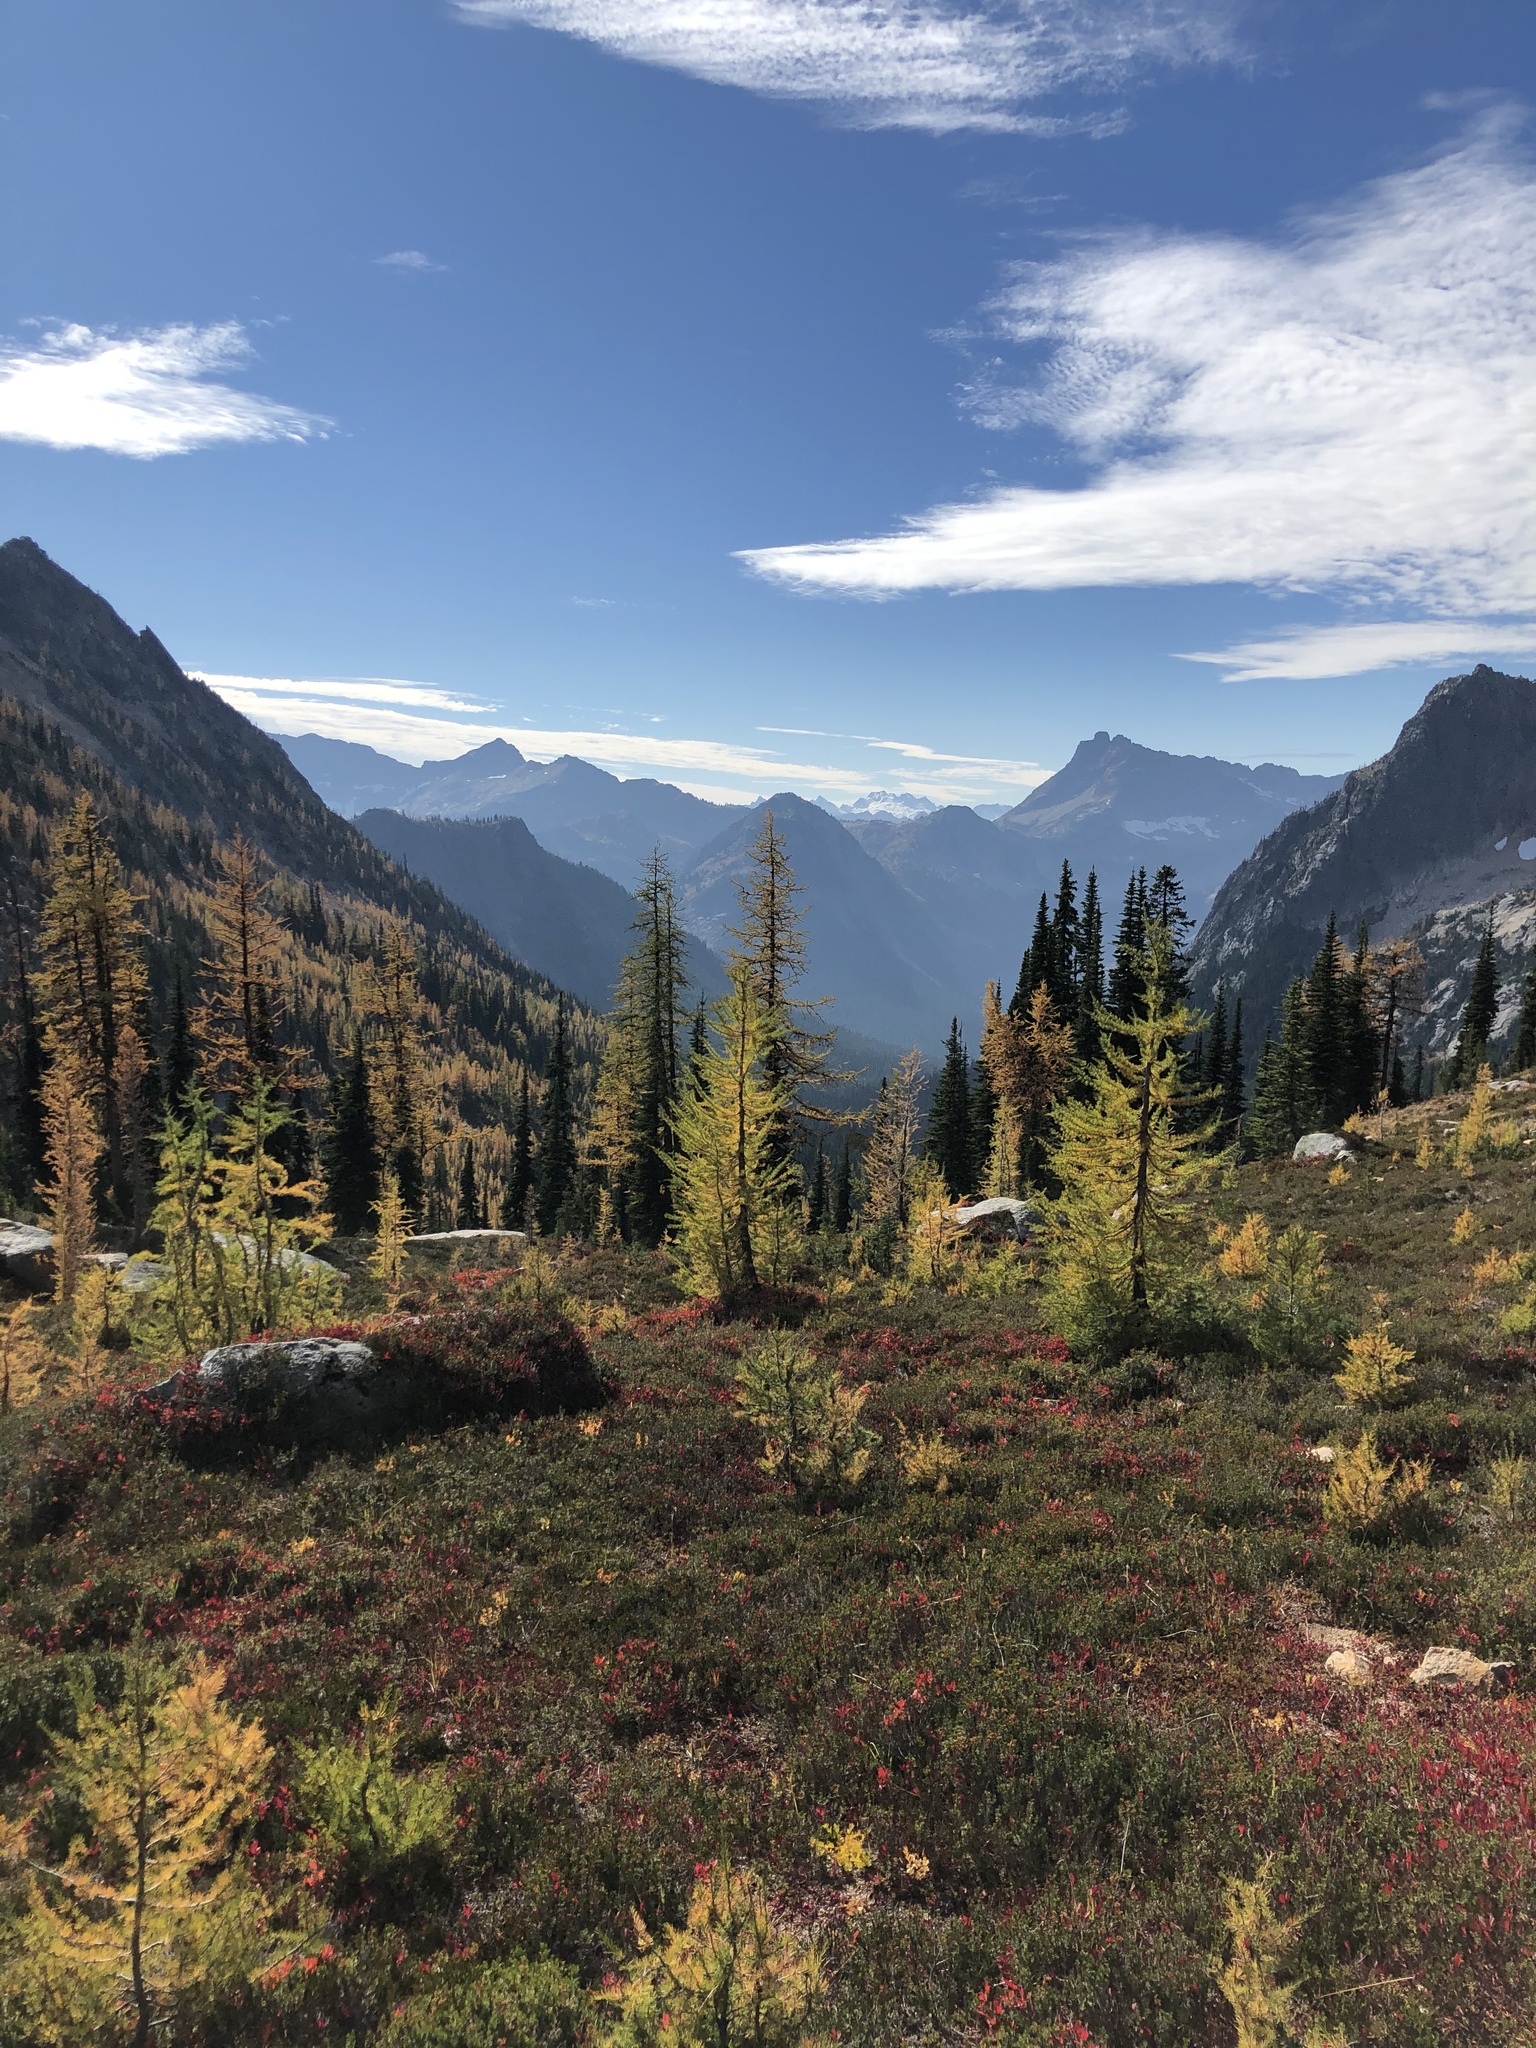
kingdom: Plantae
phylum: Tracheophyta
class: Pinopsida
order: Pinales
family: Pinaceae
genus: Larix
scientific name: Larix lyallii
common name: Alpine larch
